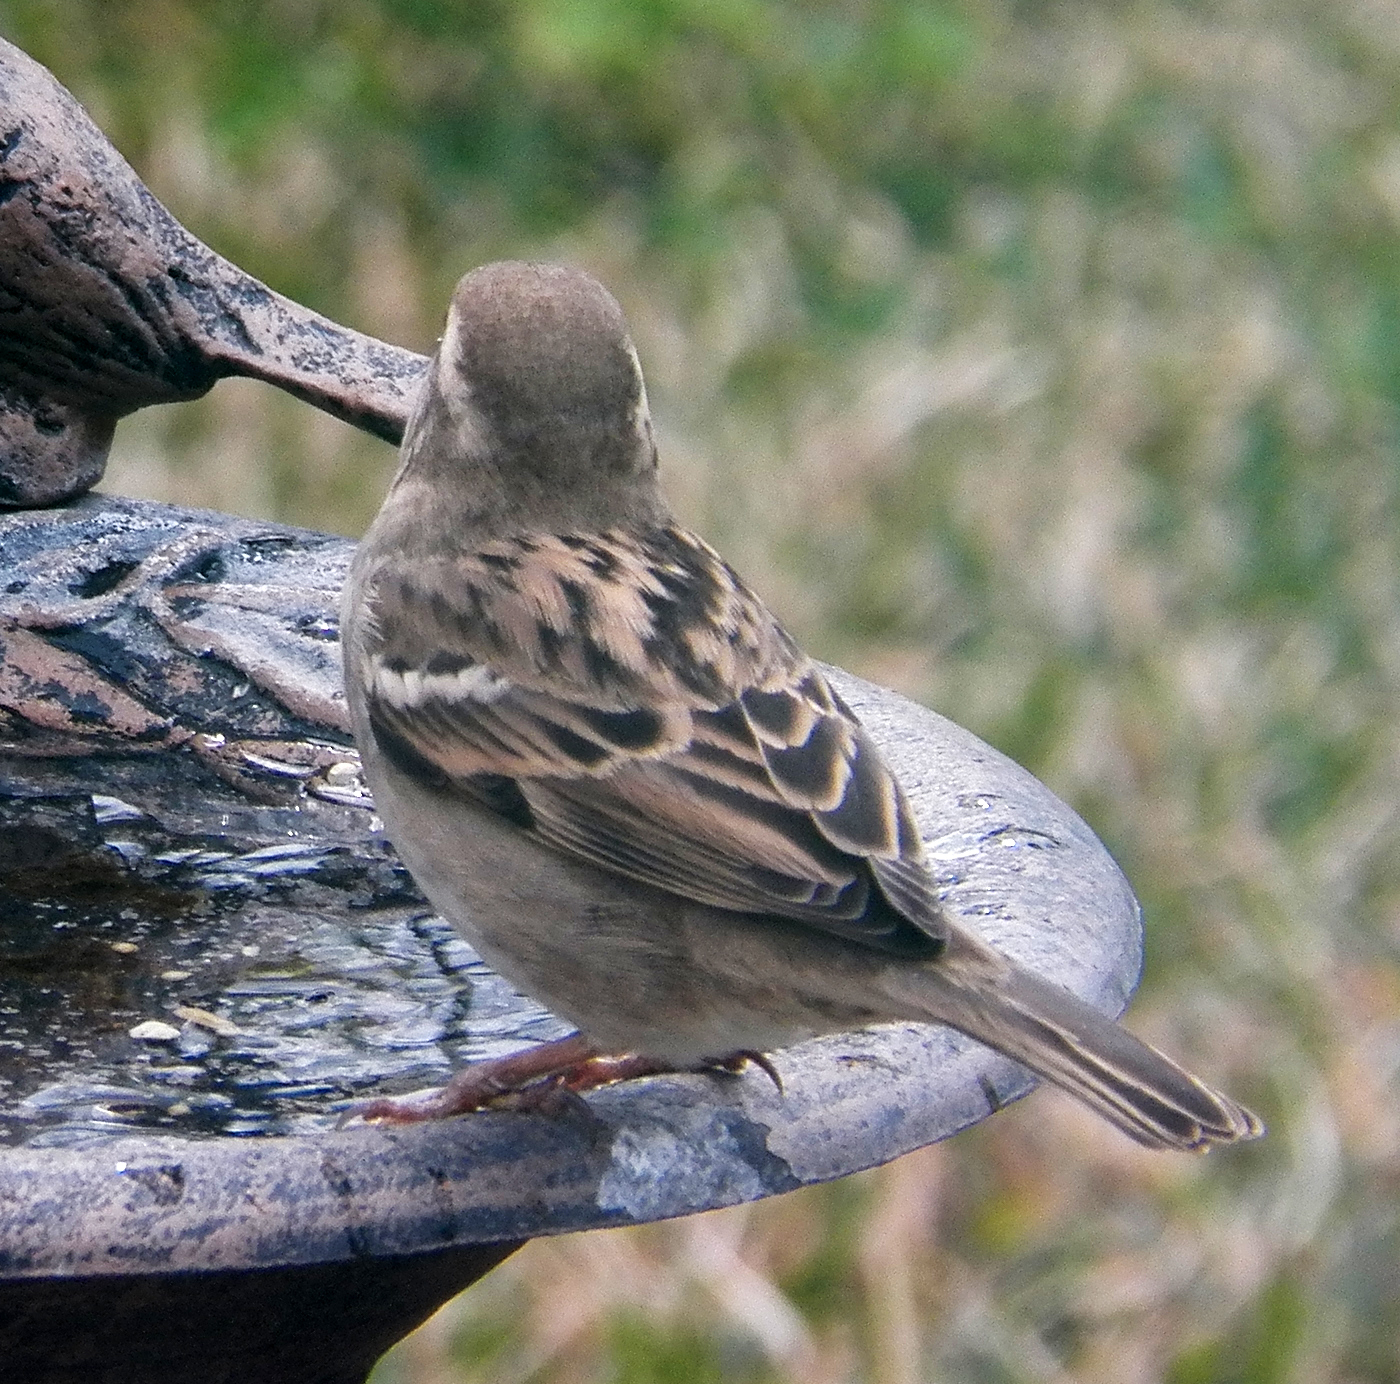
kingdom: Animalia
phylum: Chordata
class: Aves
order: Passeriformes
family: Passeridae
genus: Passer
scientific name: Passer domesticus
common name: House sparrow
